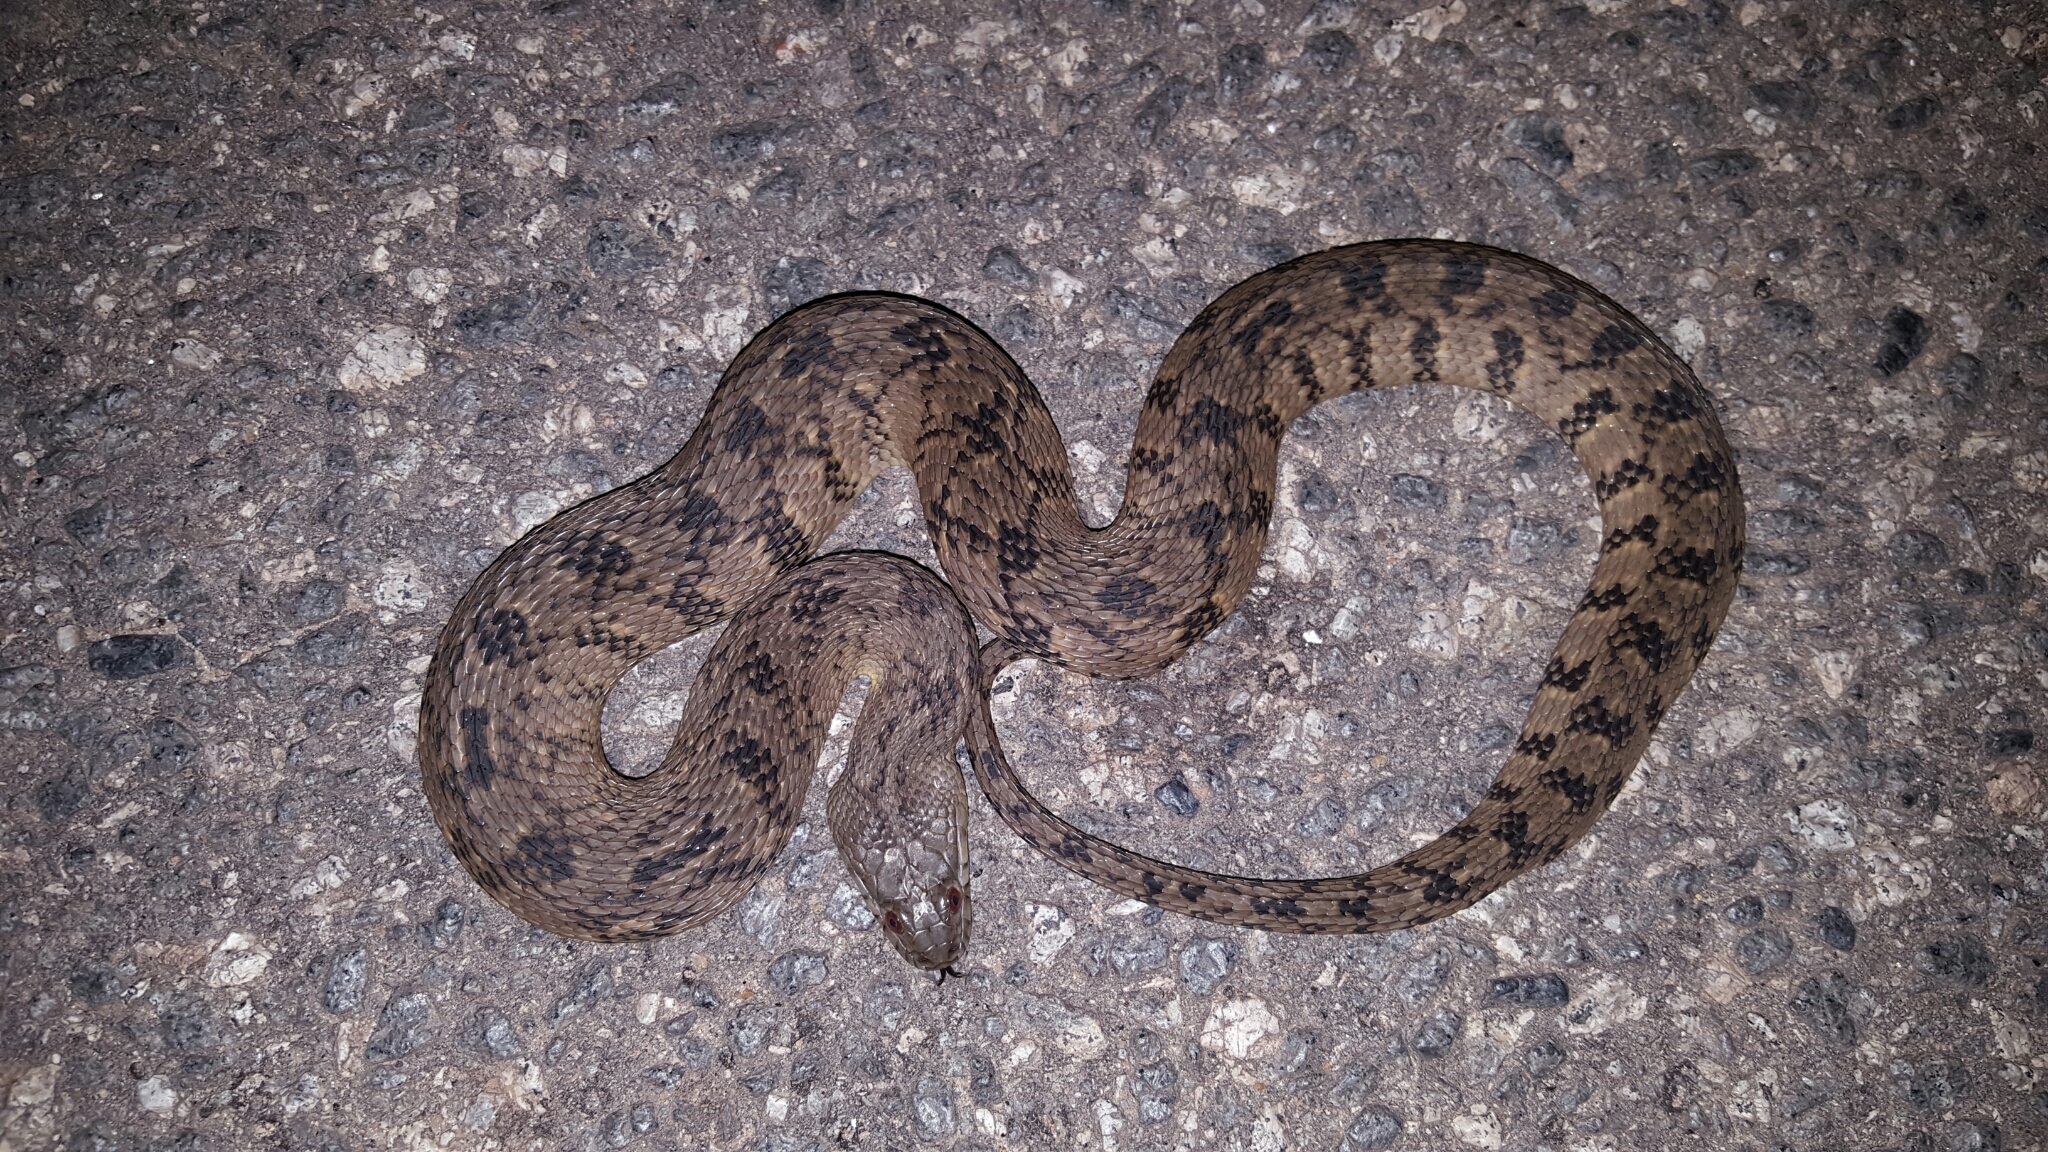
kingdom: Animalia
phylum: Chordata
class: Squamata
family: Colubridae
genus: Nerodia
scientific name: Nerodia rhombifer
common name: Diamondback water snake
